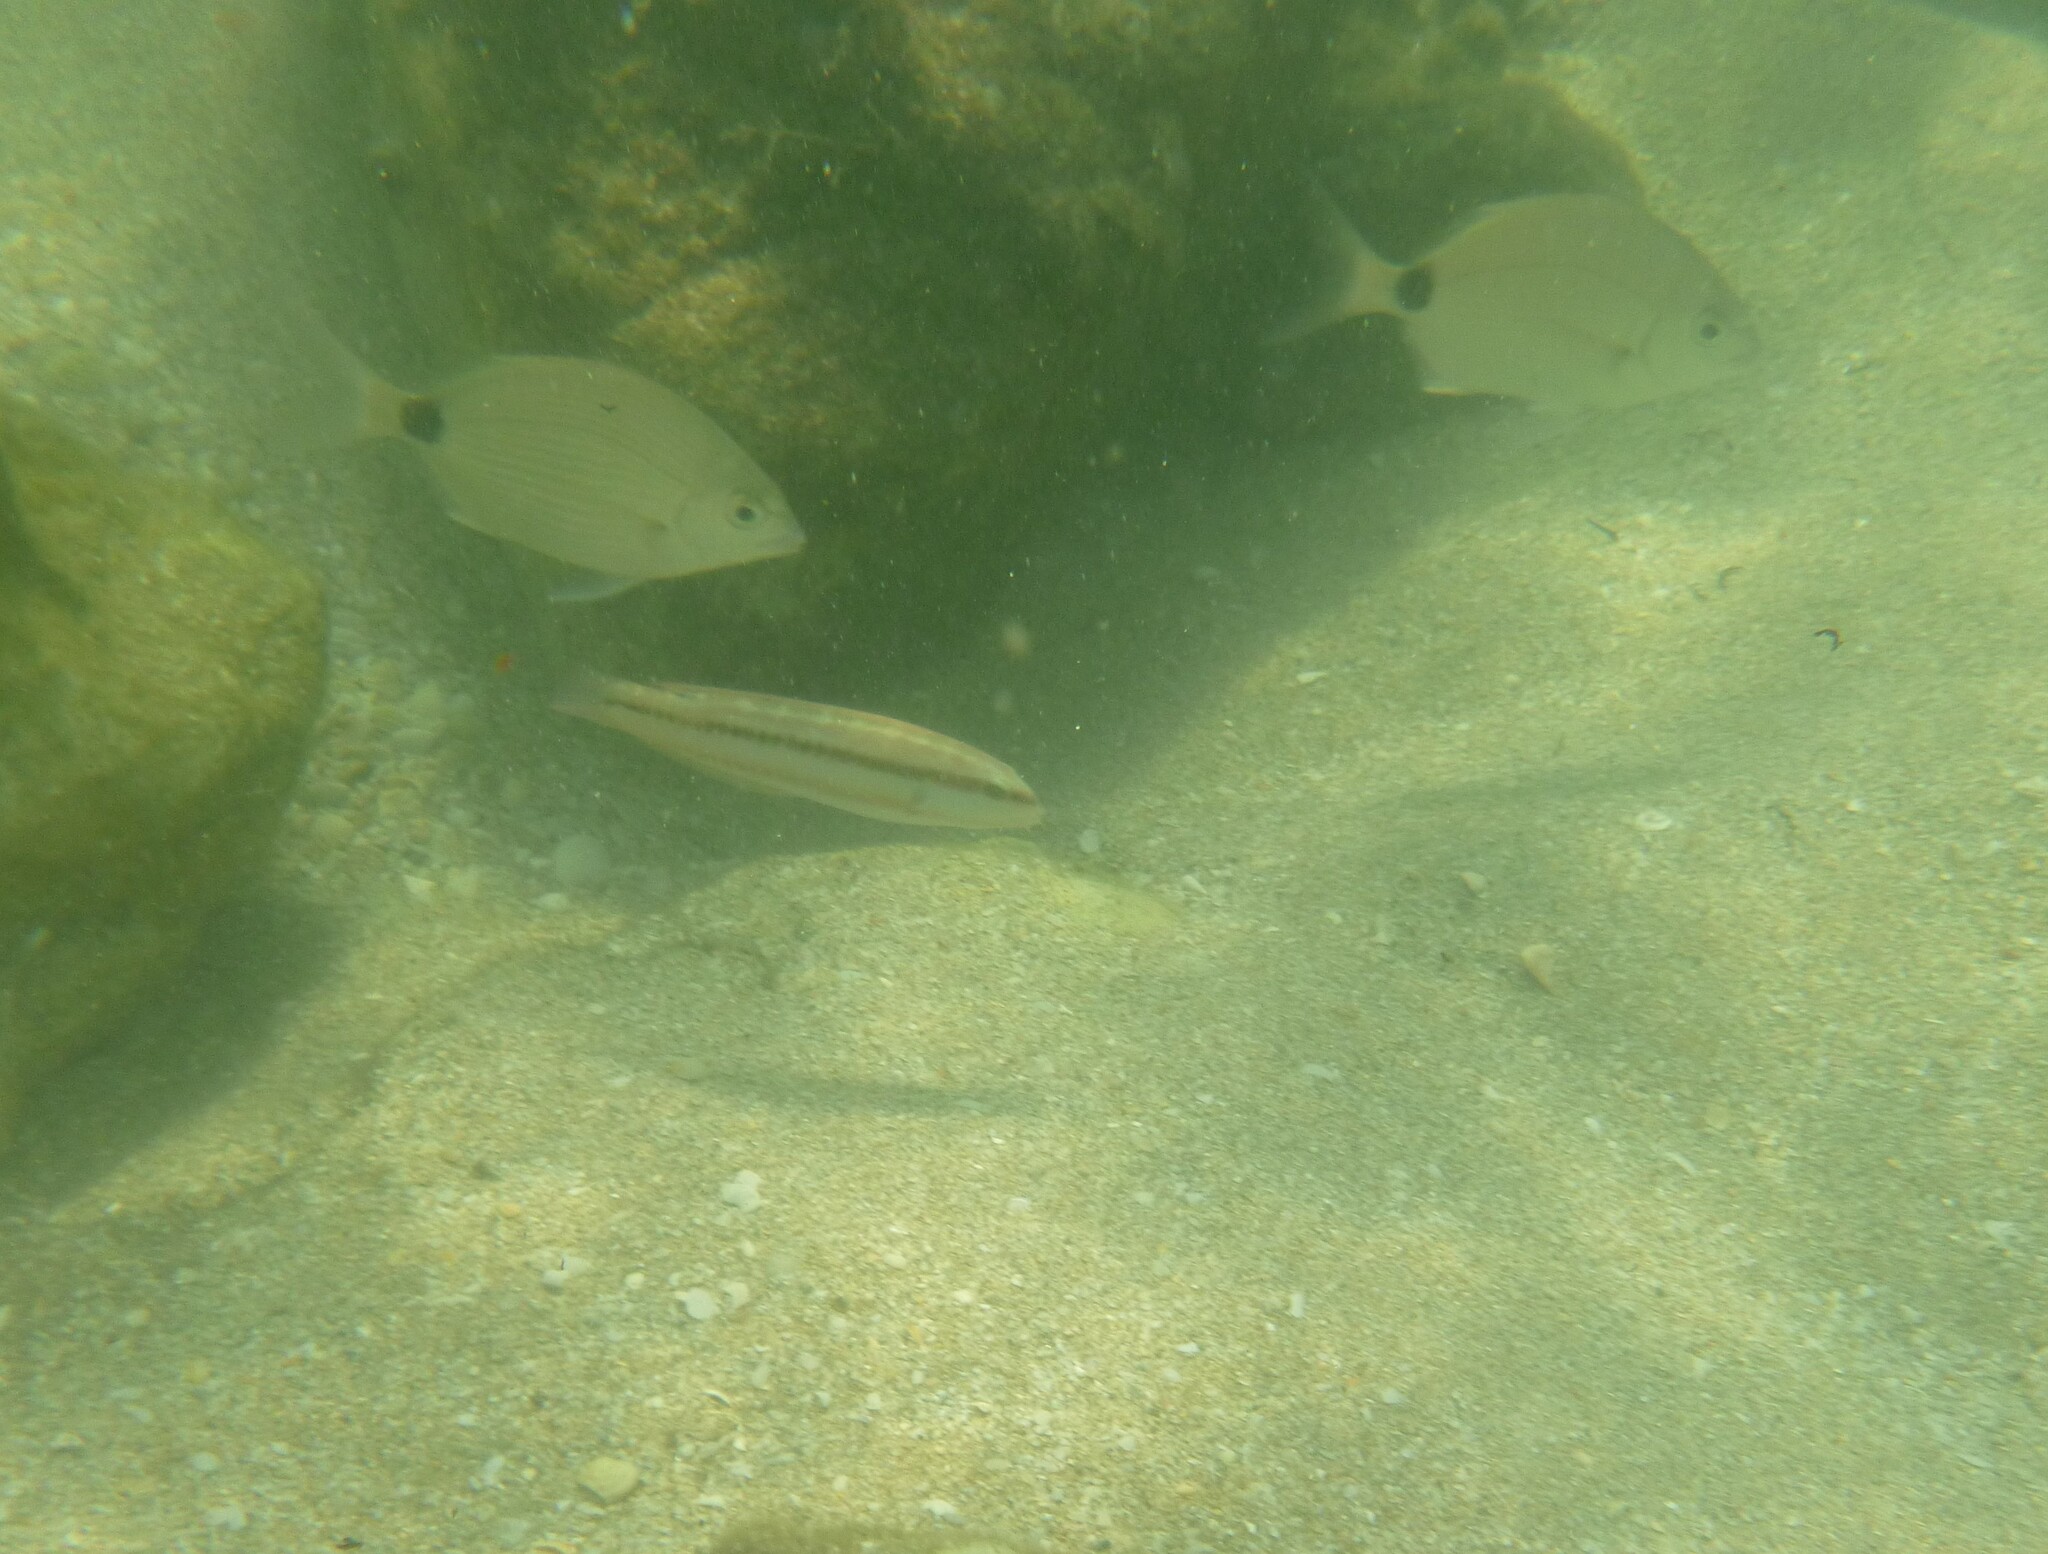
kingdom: Animalia
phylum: Chordata
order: Perciformes
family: Labridae
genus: Halichoeres
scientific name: Halichoeres bivittatus
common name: Slippery dick
